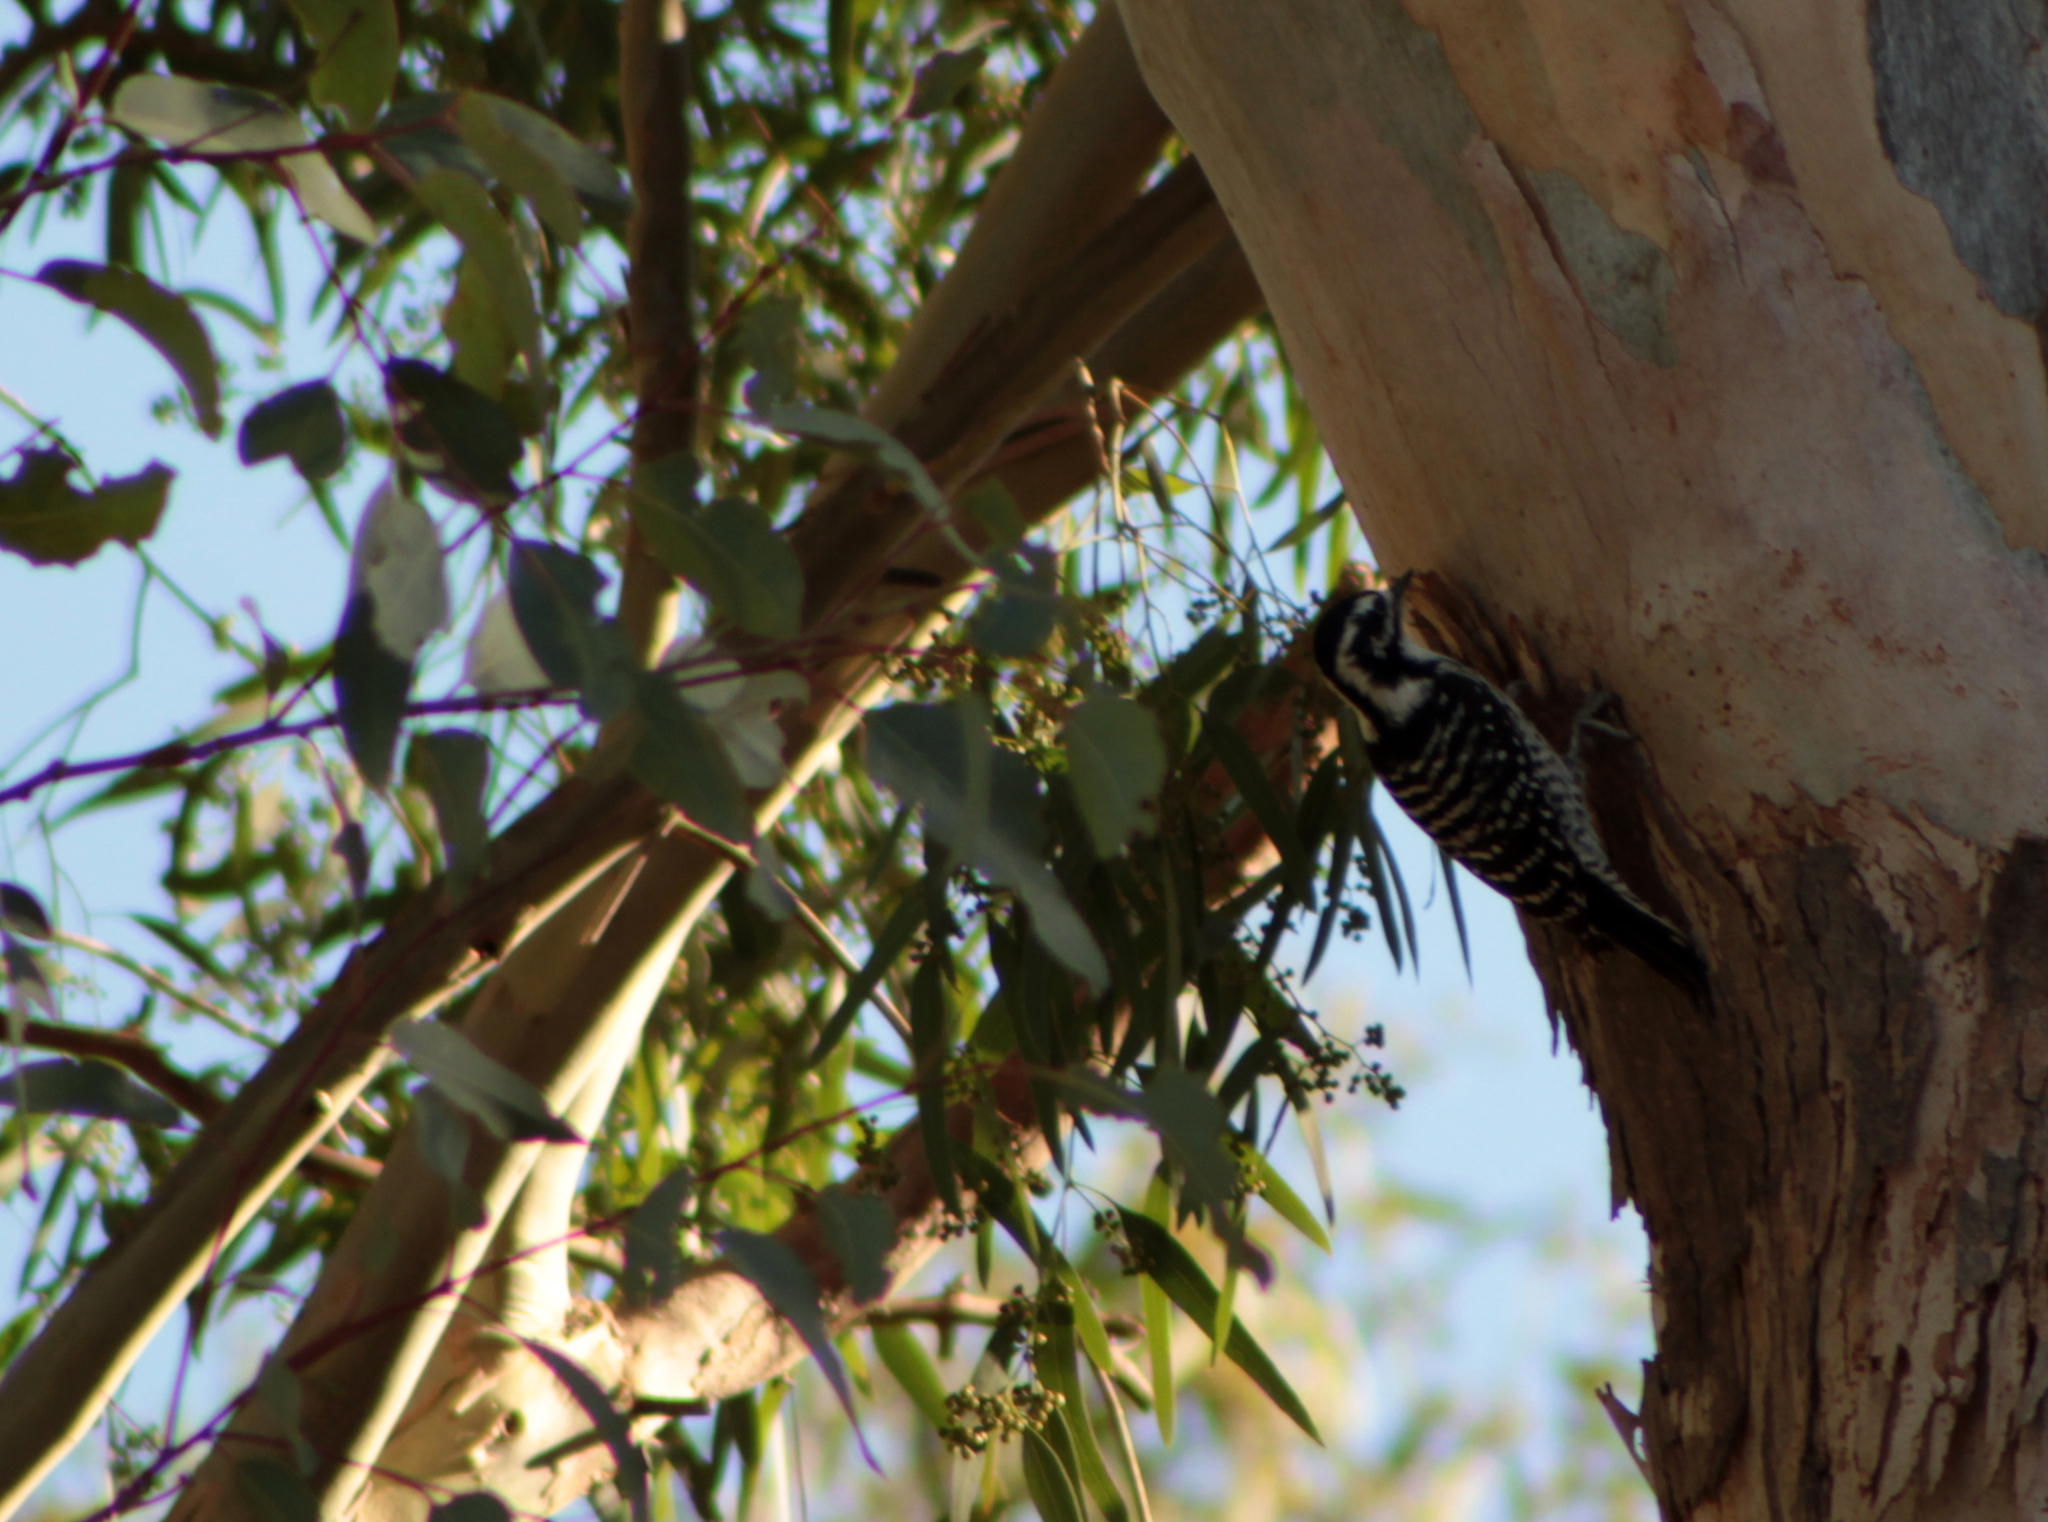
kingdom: Animalia
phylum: Chordata
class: Aves
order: Piciformes
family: Picidae
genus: Dryobates
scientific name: Dryobates nuttallii
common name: Nuttall's woodpecker
